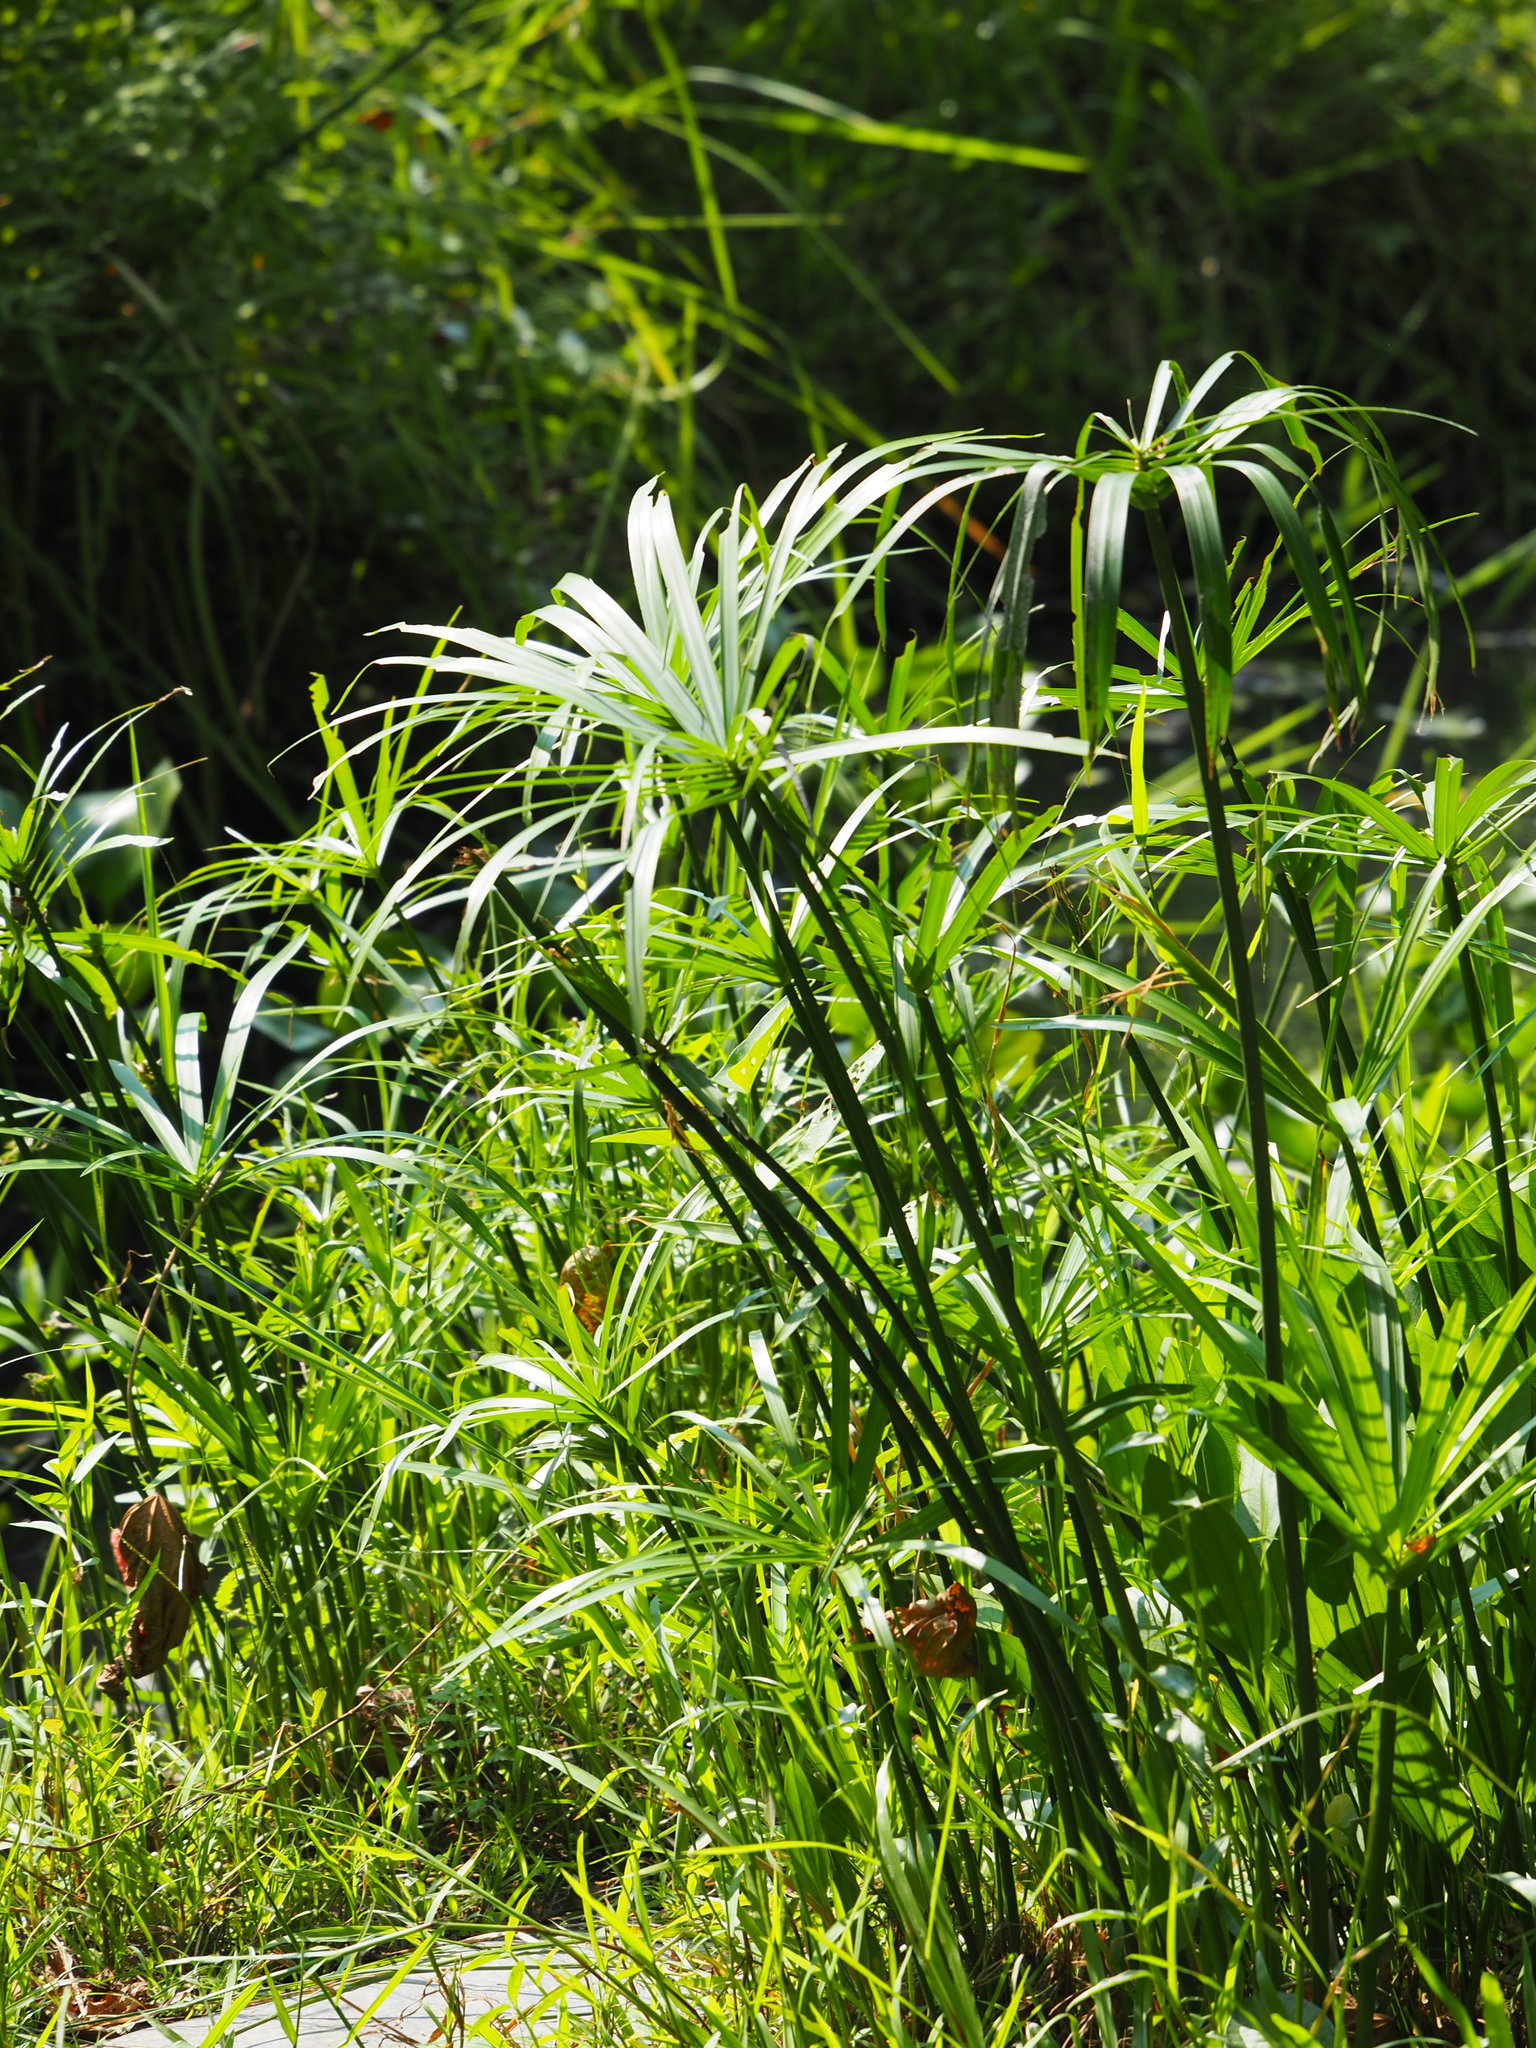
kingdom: Plantae
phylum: Tracheophyta
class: Liliopsida
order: Poales
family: Cyperaceae
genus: Cyperus
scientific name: Cyperus alternifolius
